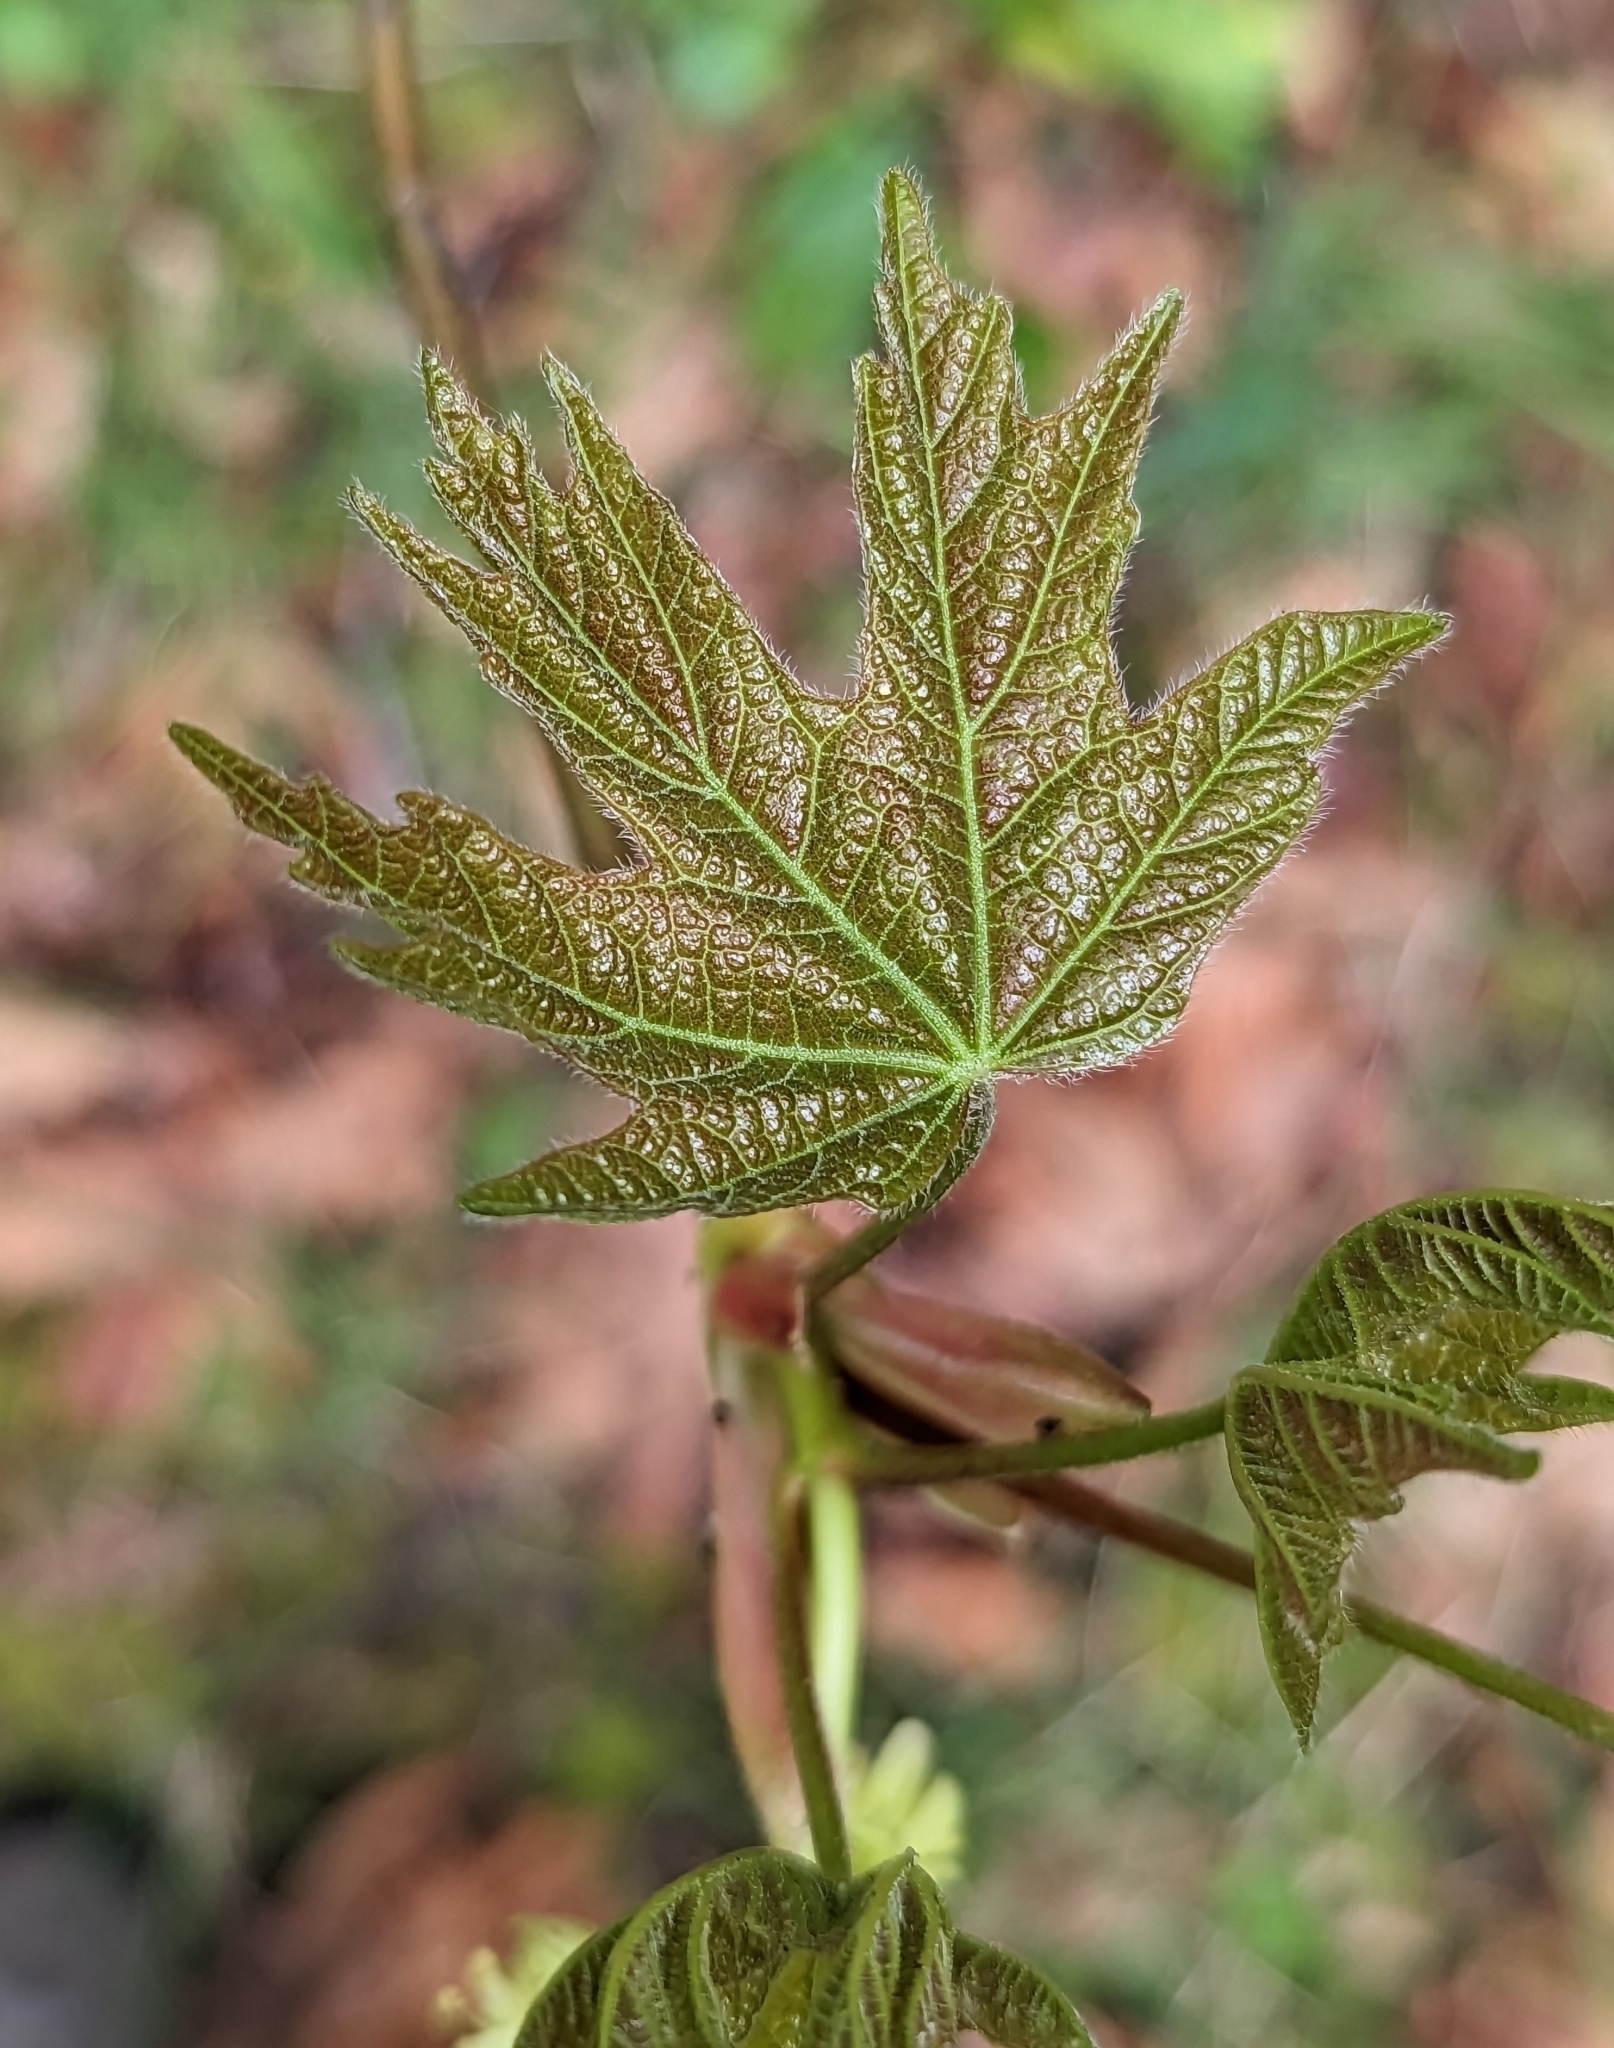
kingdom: Plantae
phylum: Tracheophyta
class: Magnoliopsida
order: Sapindales
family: Sapindaceae
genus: Acer
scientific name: Acer macrophyllum
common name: Oregon maple
